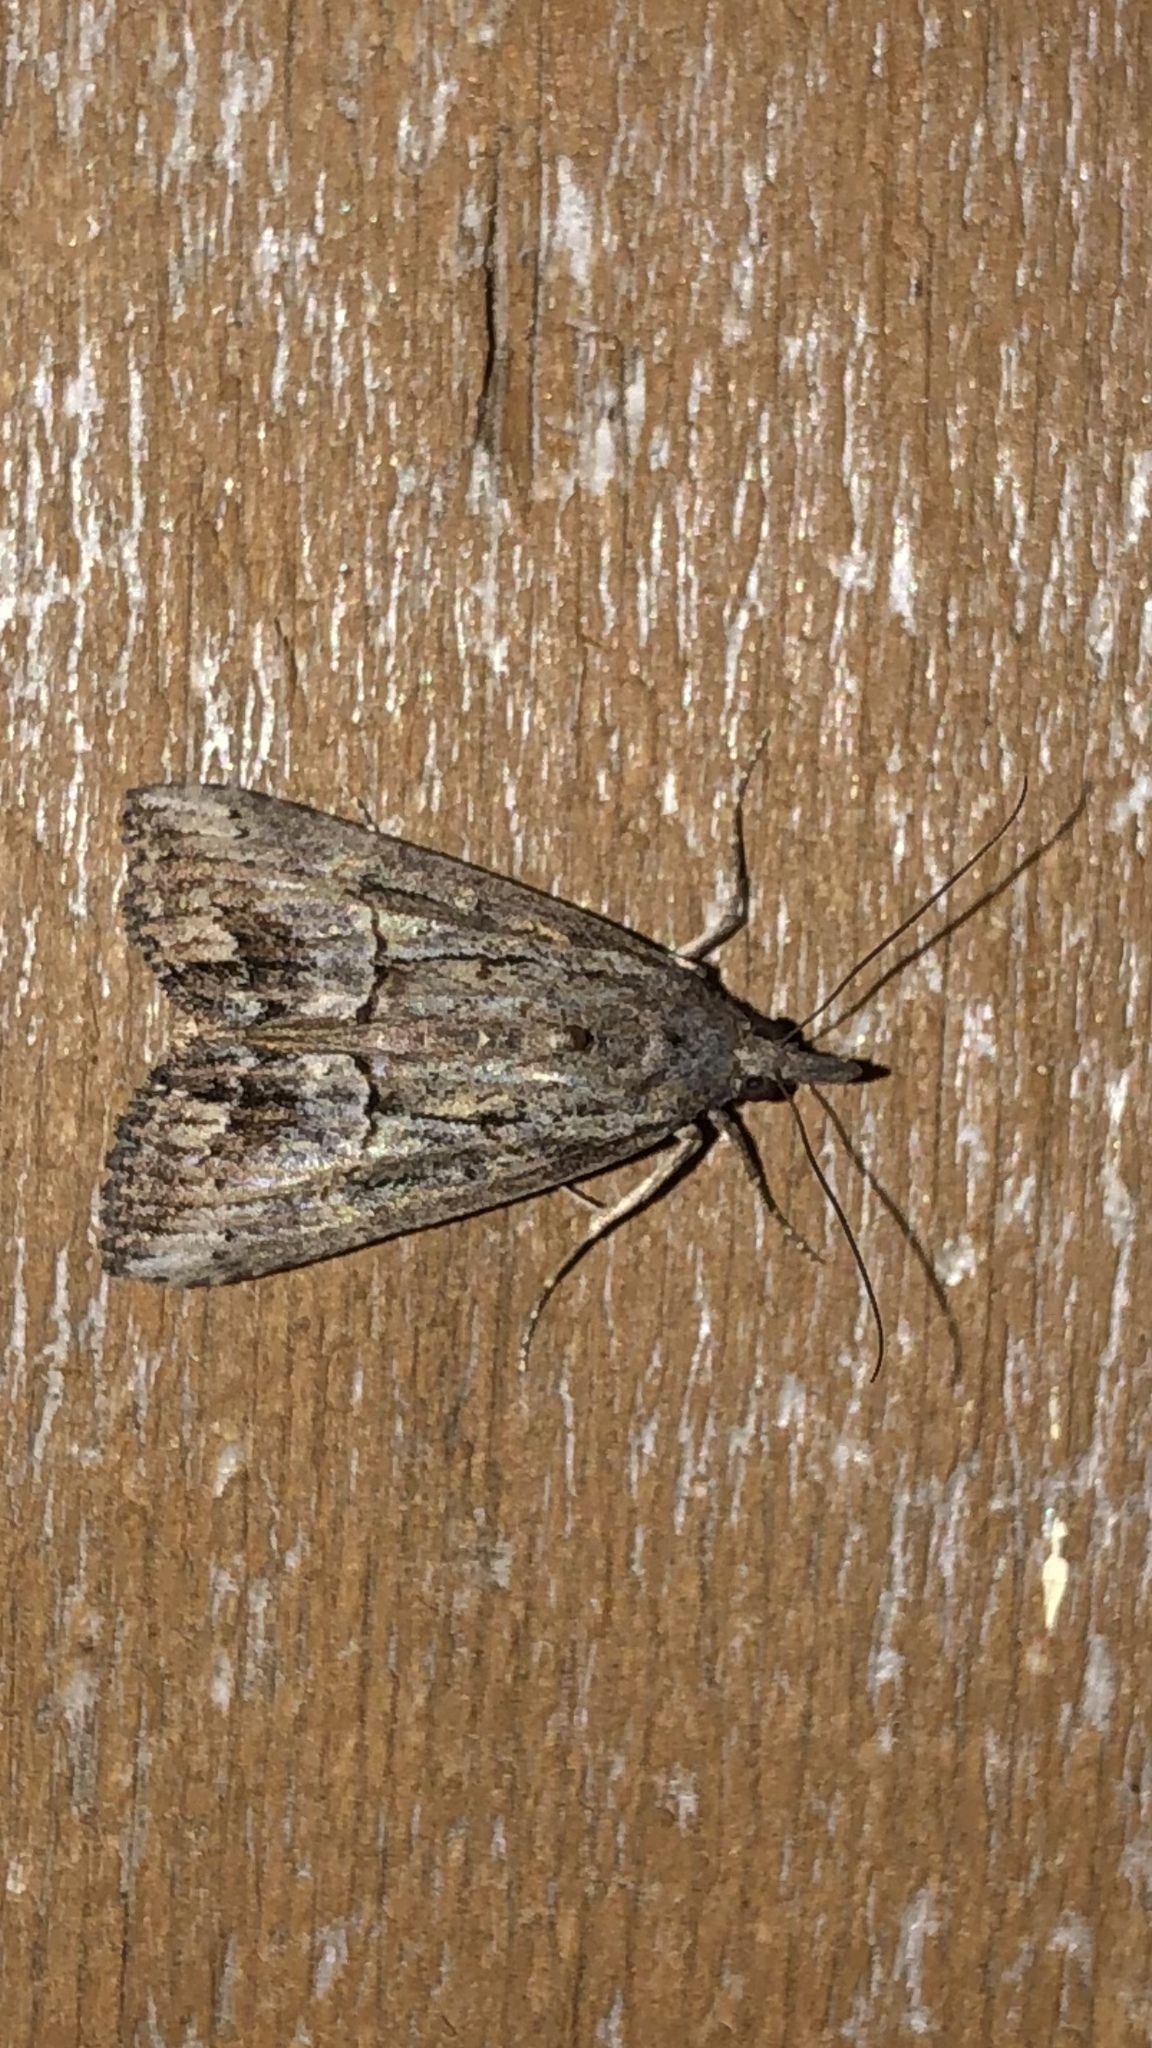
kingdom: Animalia
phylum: Arthropoda
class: Insecta
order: Lepidoptera
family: Erebidae
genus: Hypena
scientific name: Hypena scabra
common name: Green cloverworm
